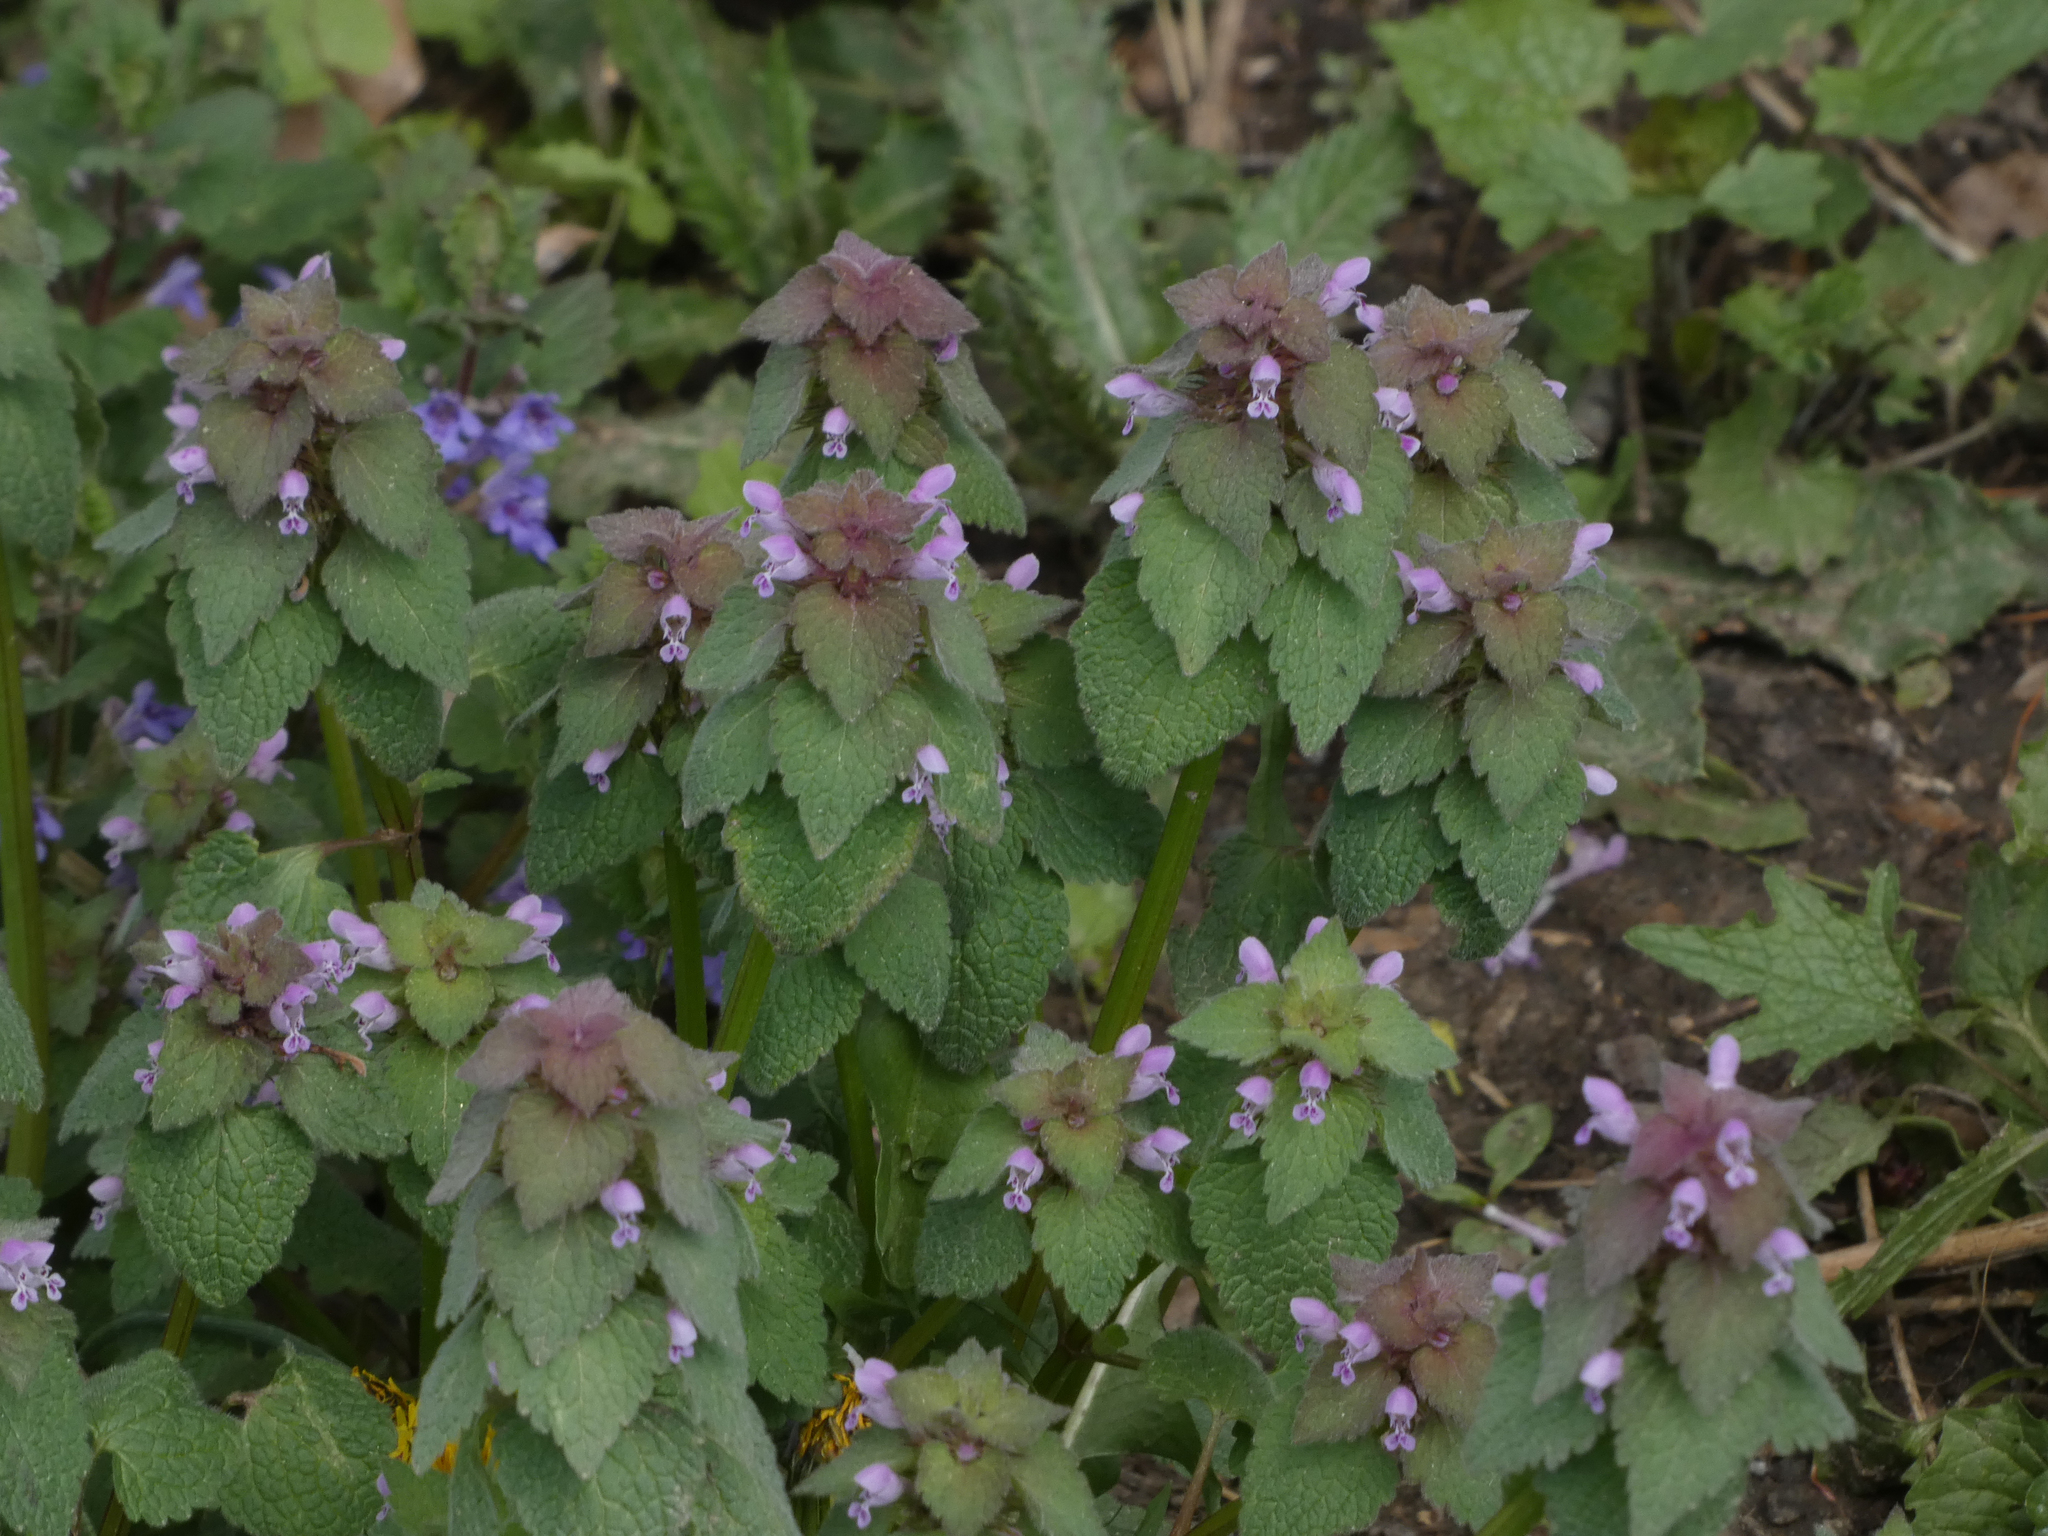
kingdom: Plantae
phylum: Tracheophyta
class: Magnoliopsida
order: Lamiales
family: Lamiaceae
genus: Lamium
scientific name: Lamium purpureum
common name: Red dead-nettle
